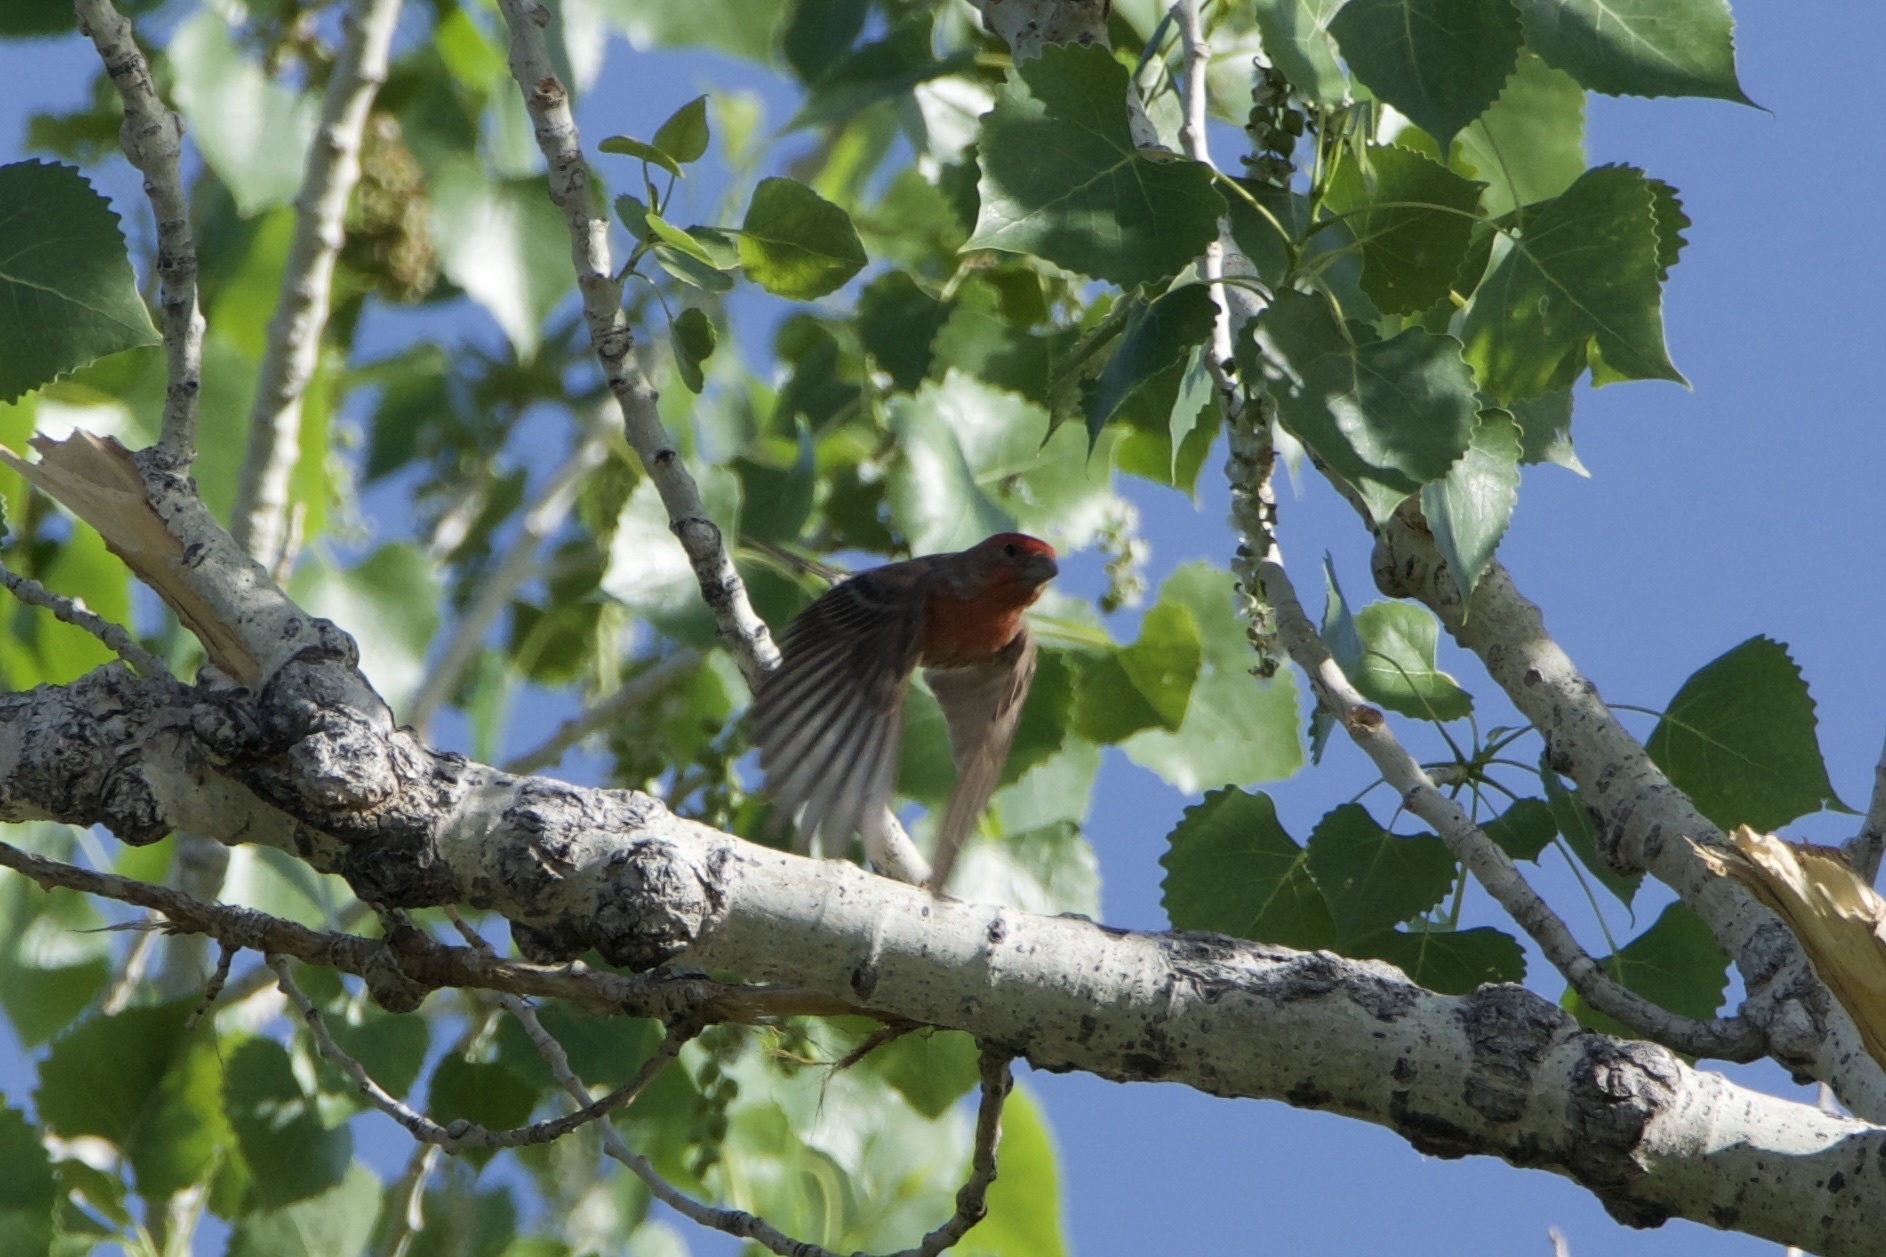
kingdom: Animalia
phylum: Chordata
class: Aves
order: Passeriformes
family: Fringillidae
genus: Haemorhous
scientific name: Haemorhous mexicanus
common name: House finch
